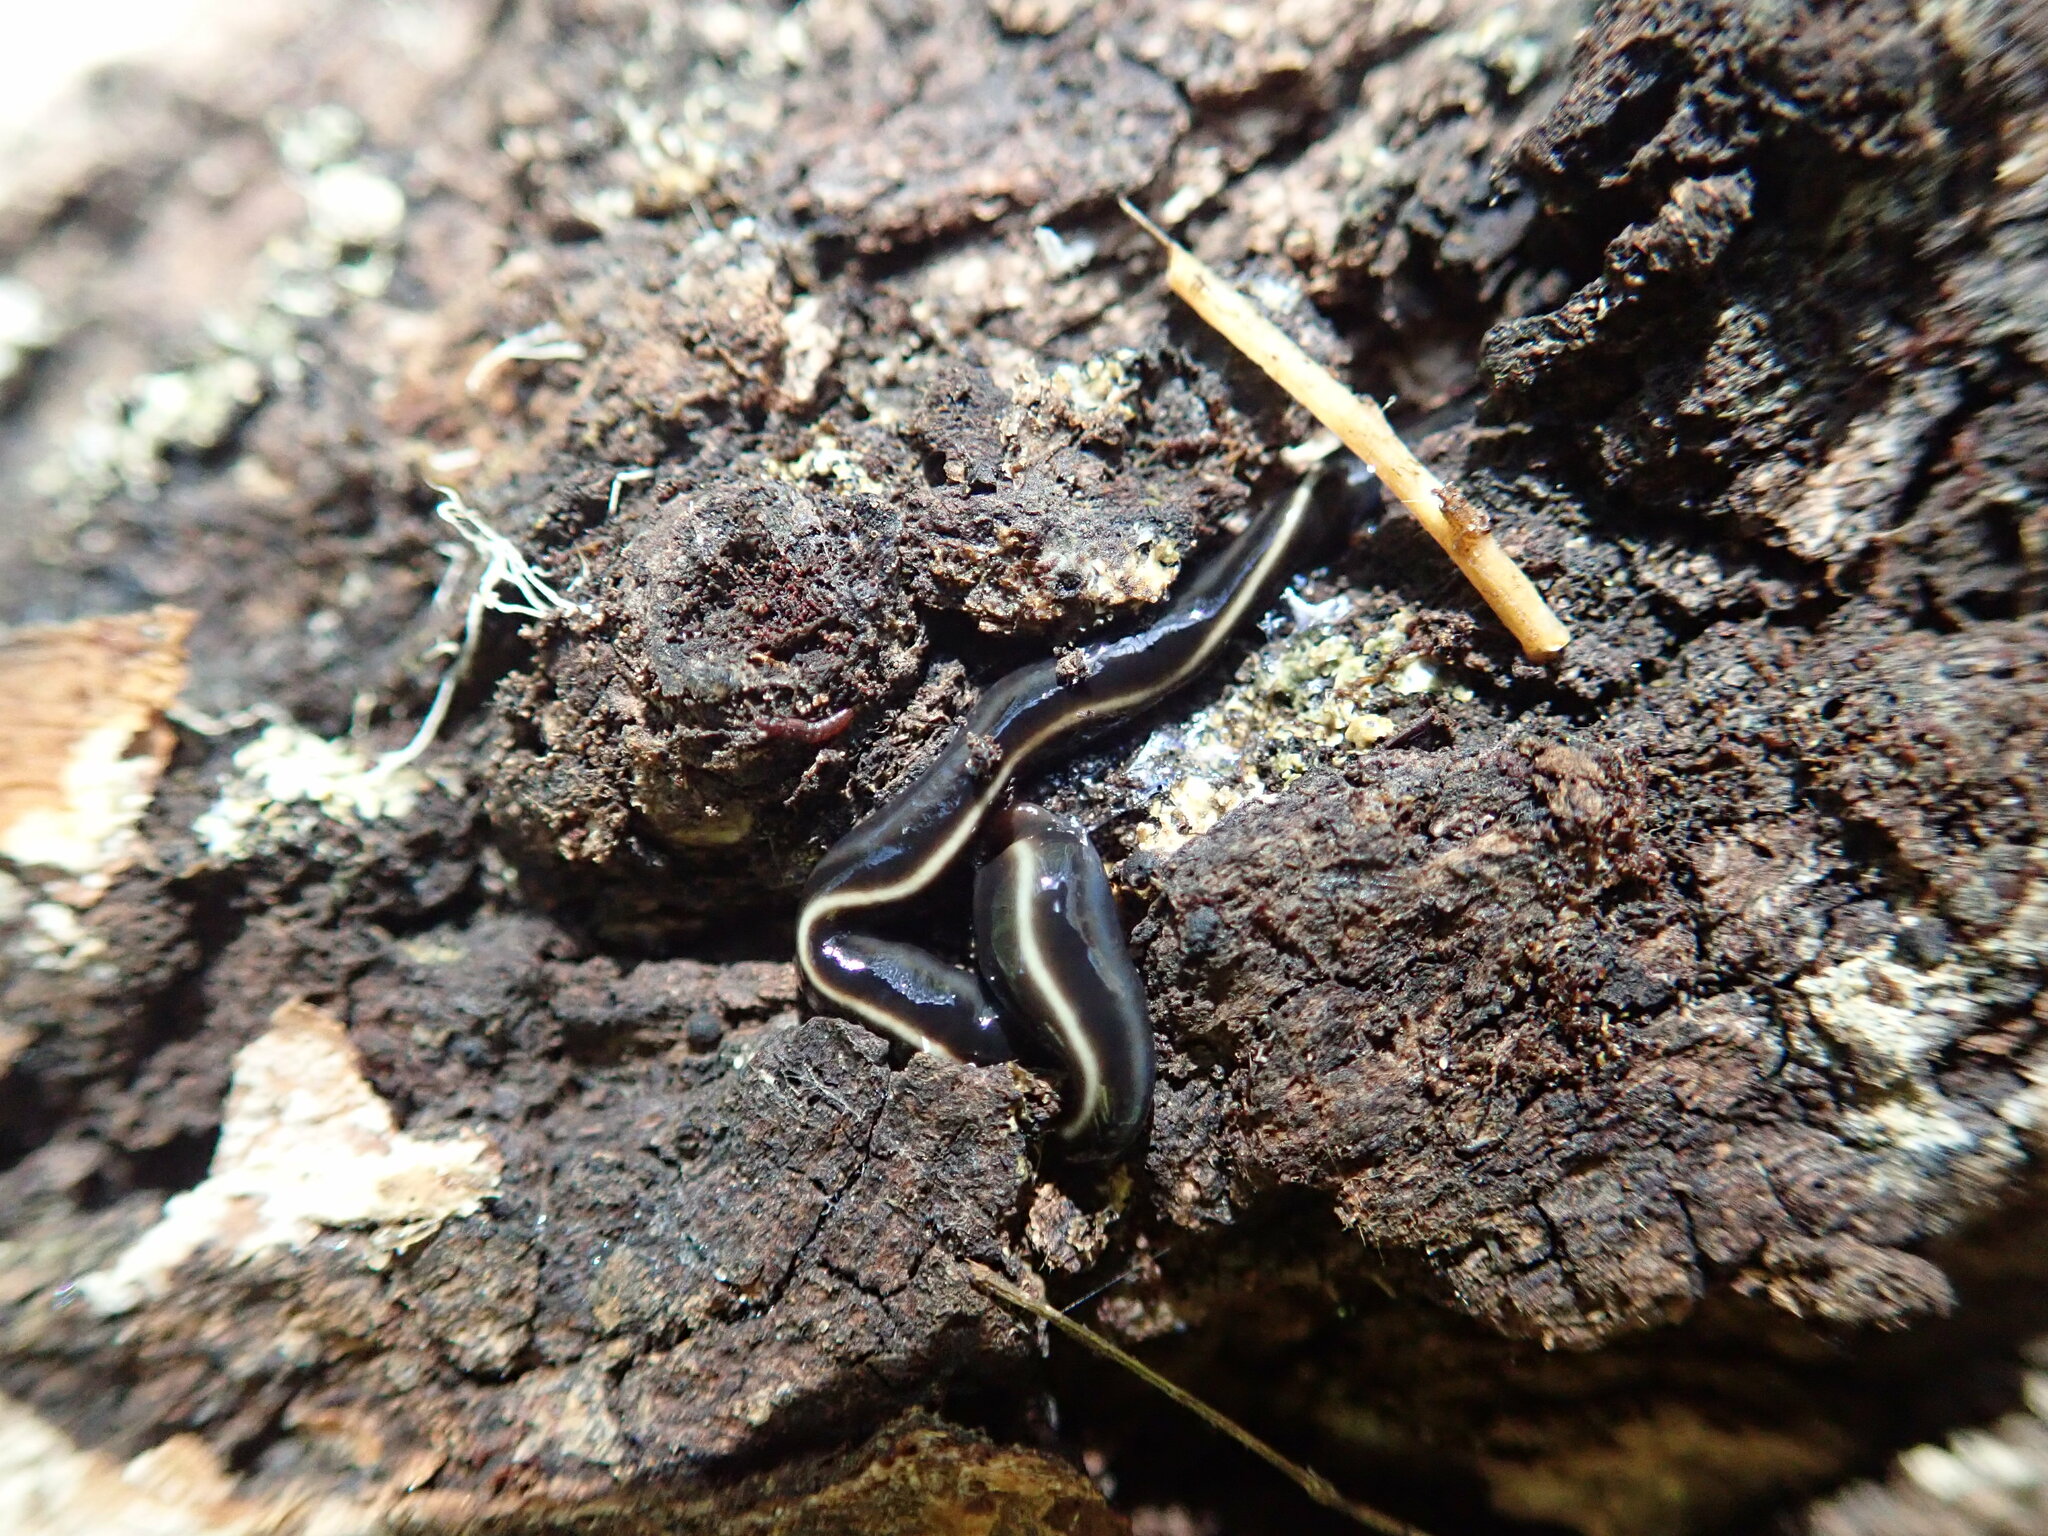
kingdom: Animalia
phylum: Platyhelminthes
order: Tricladida
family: Geoplanidae
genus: Caenoplana
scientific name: Caenoplana coerulea
